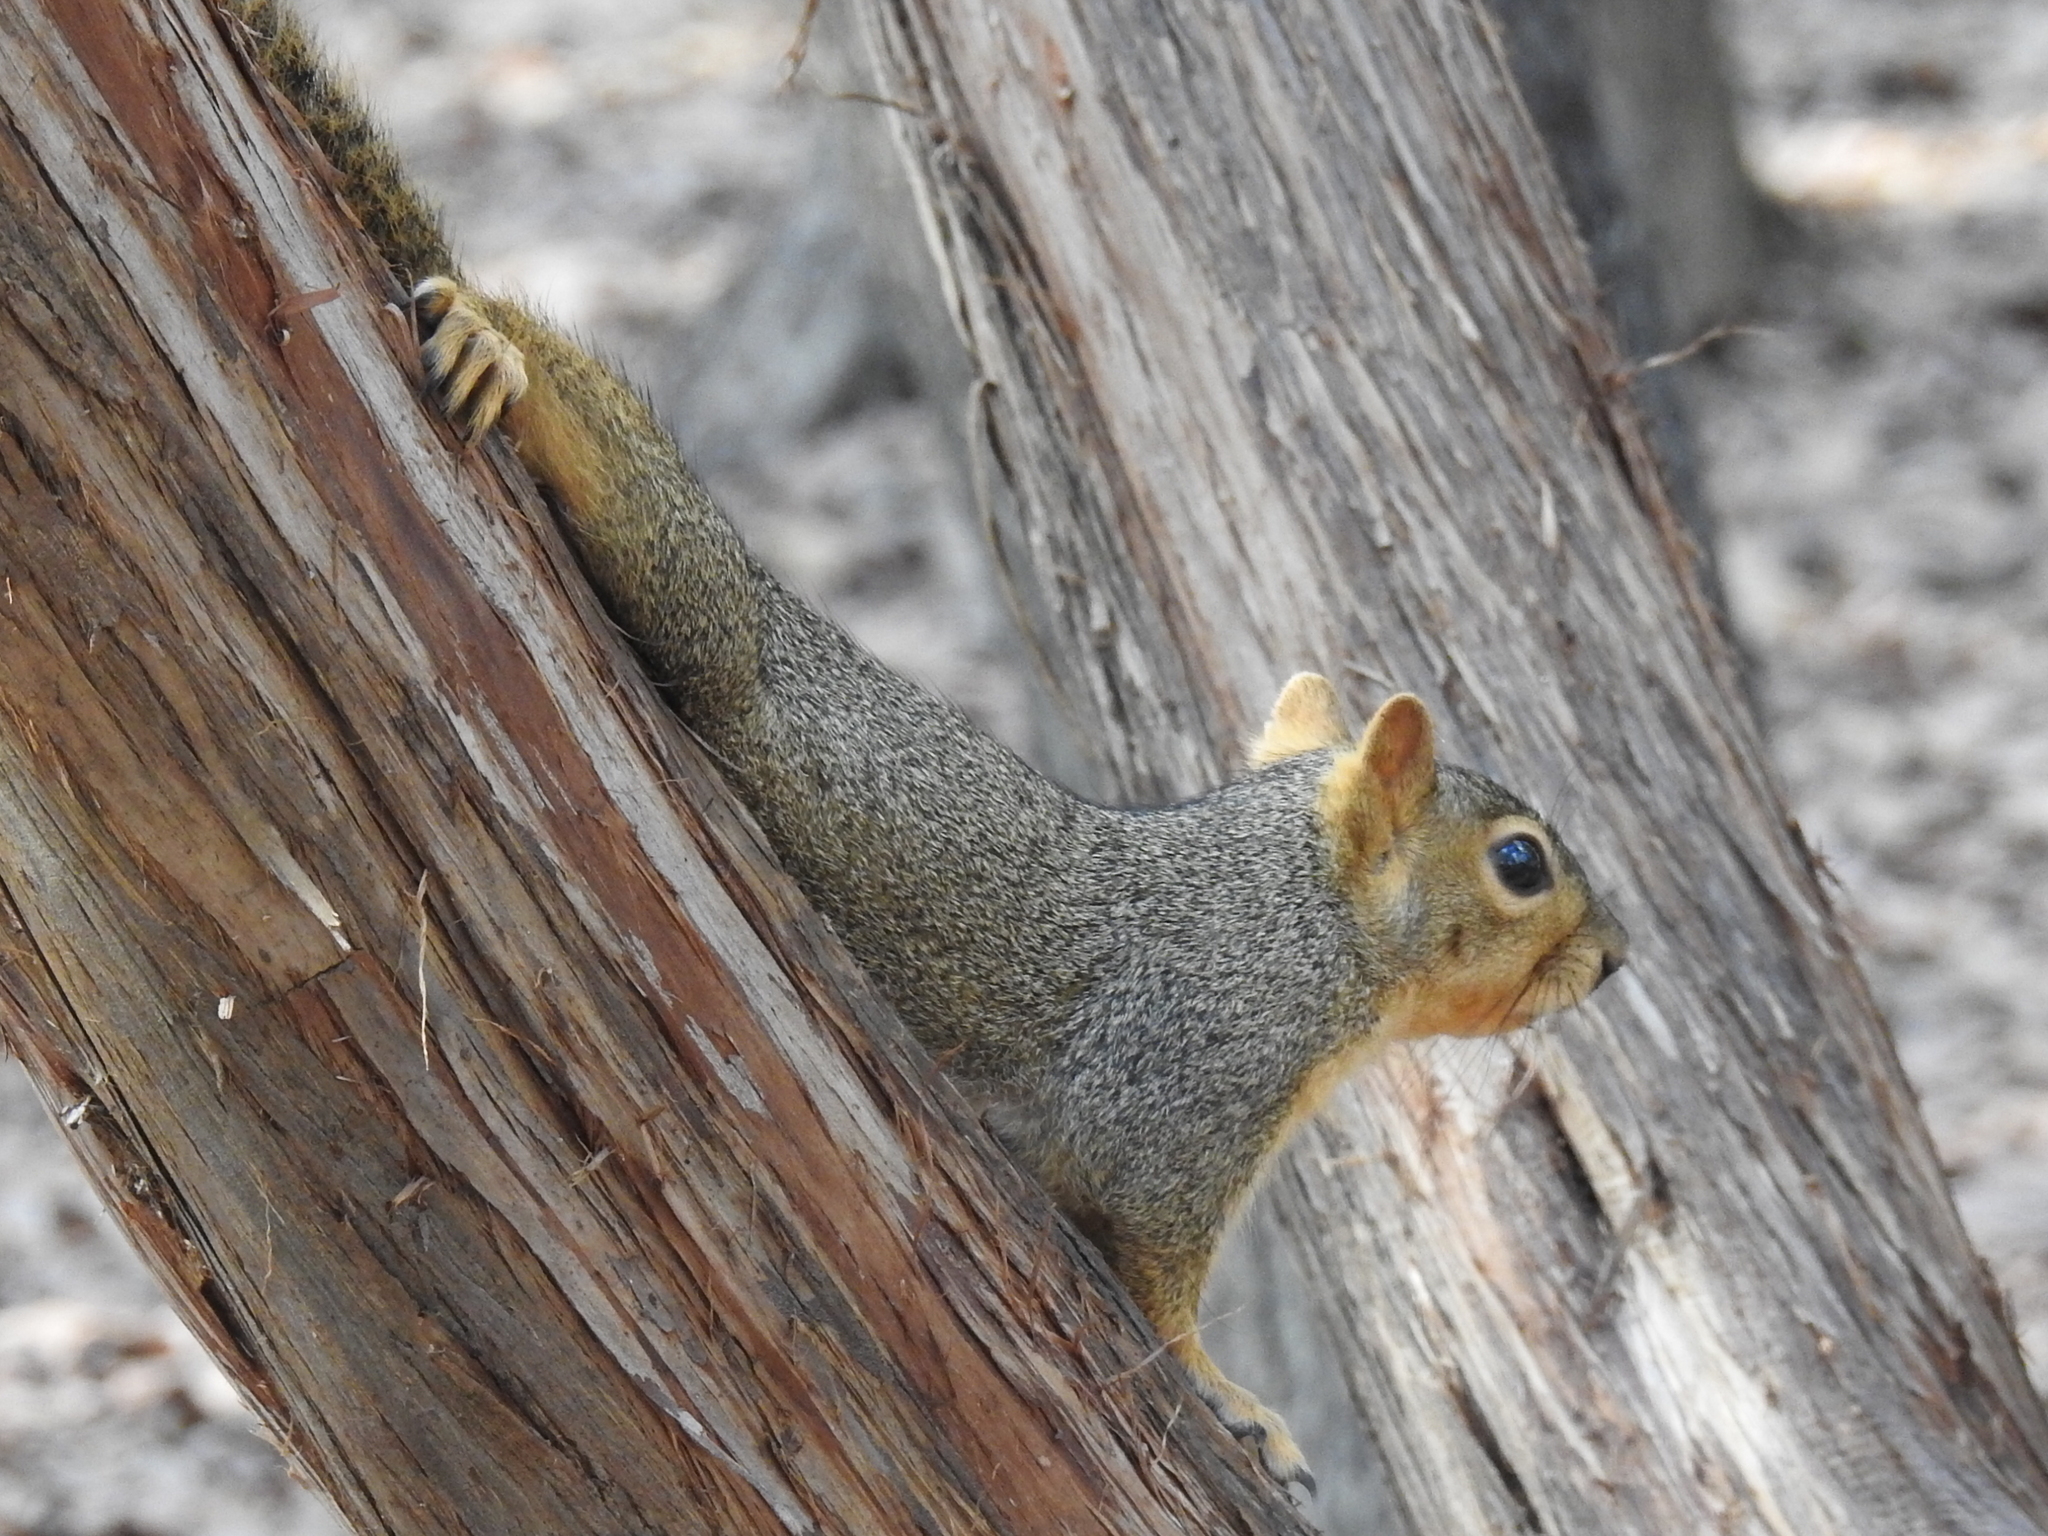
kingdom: Animalia
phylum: Chordata
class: Mammalia
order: Rodentia
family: Sciuridae
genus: Sciurus
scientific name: Sciurus niger
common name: Fox squirrel
